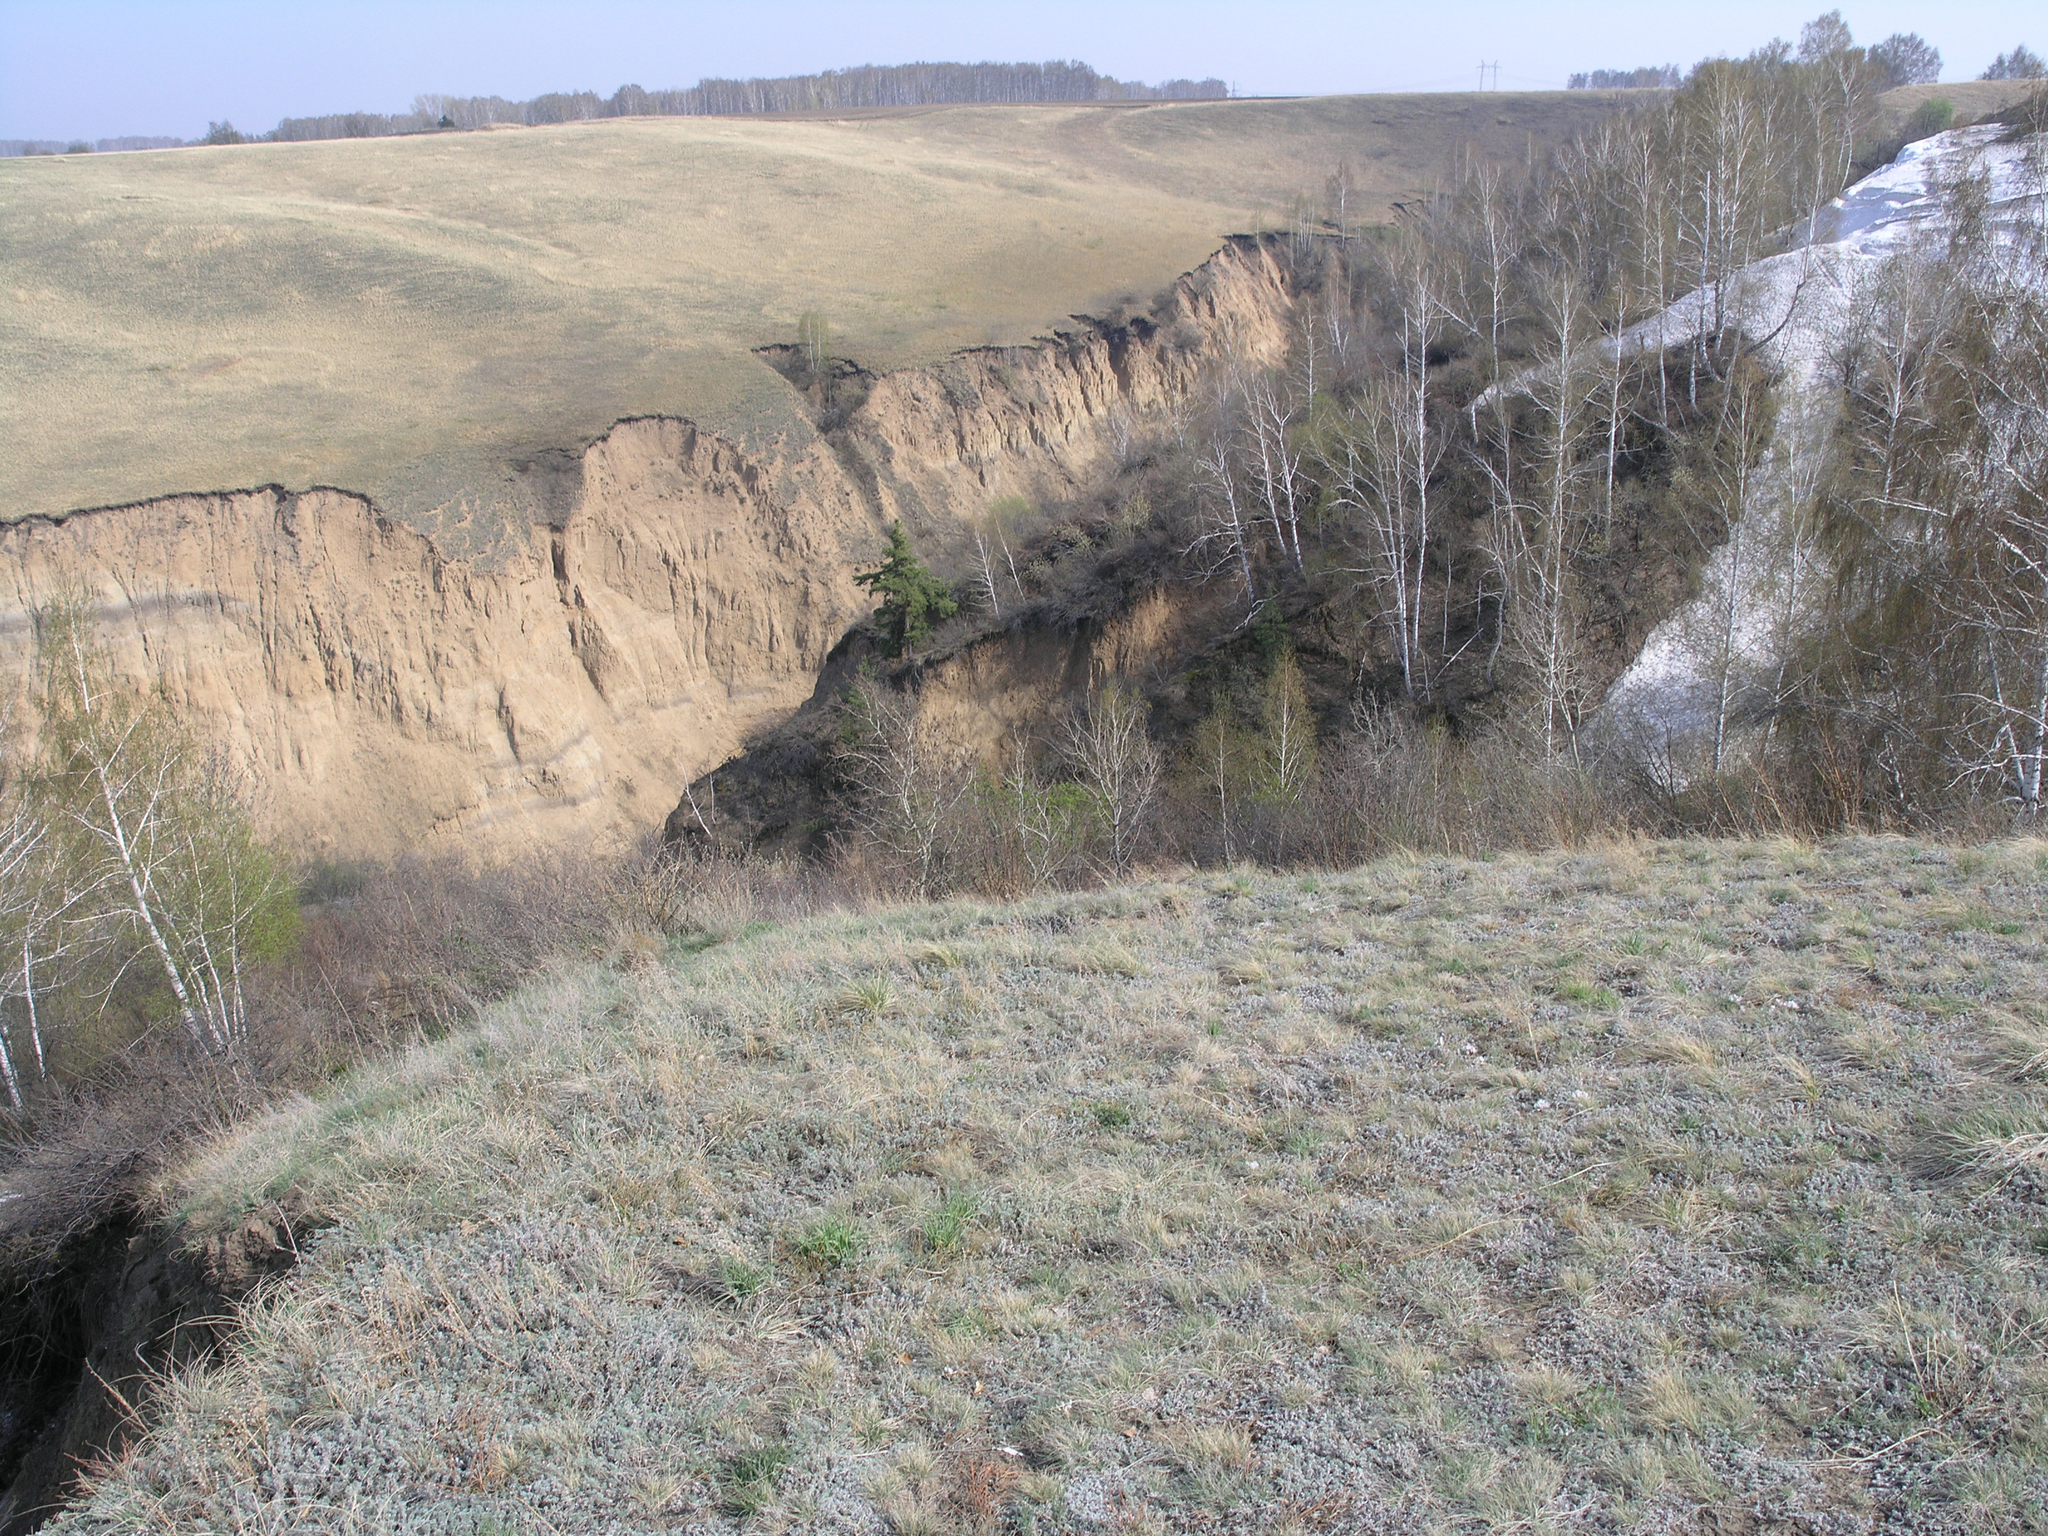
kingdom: Plantae
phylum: Tracheophyta
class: Magnoliopsida
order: Fagales
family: Betulaceae
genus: Betula
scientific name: Betula pendula
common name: Silver birch
